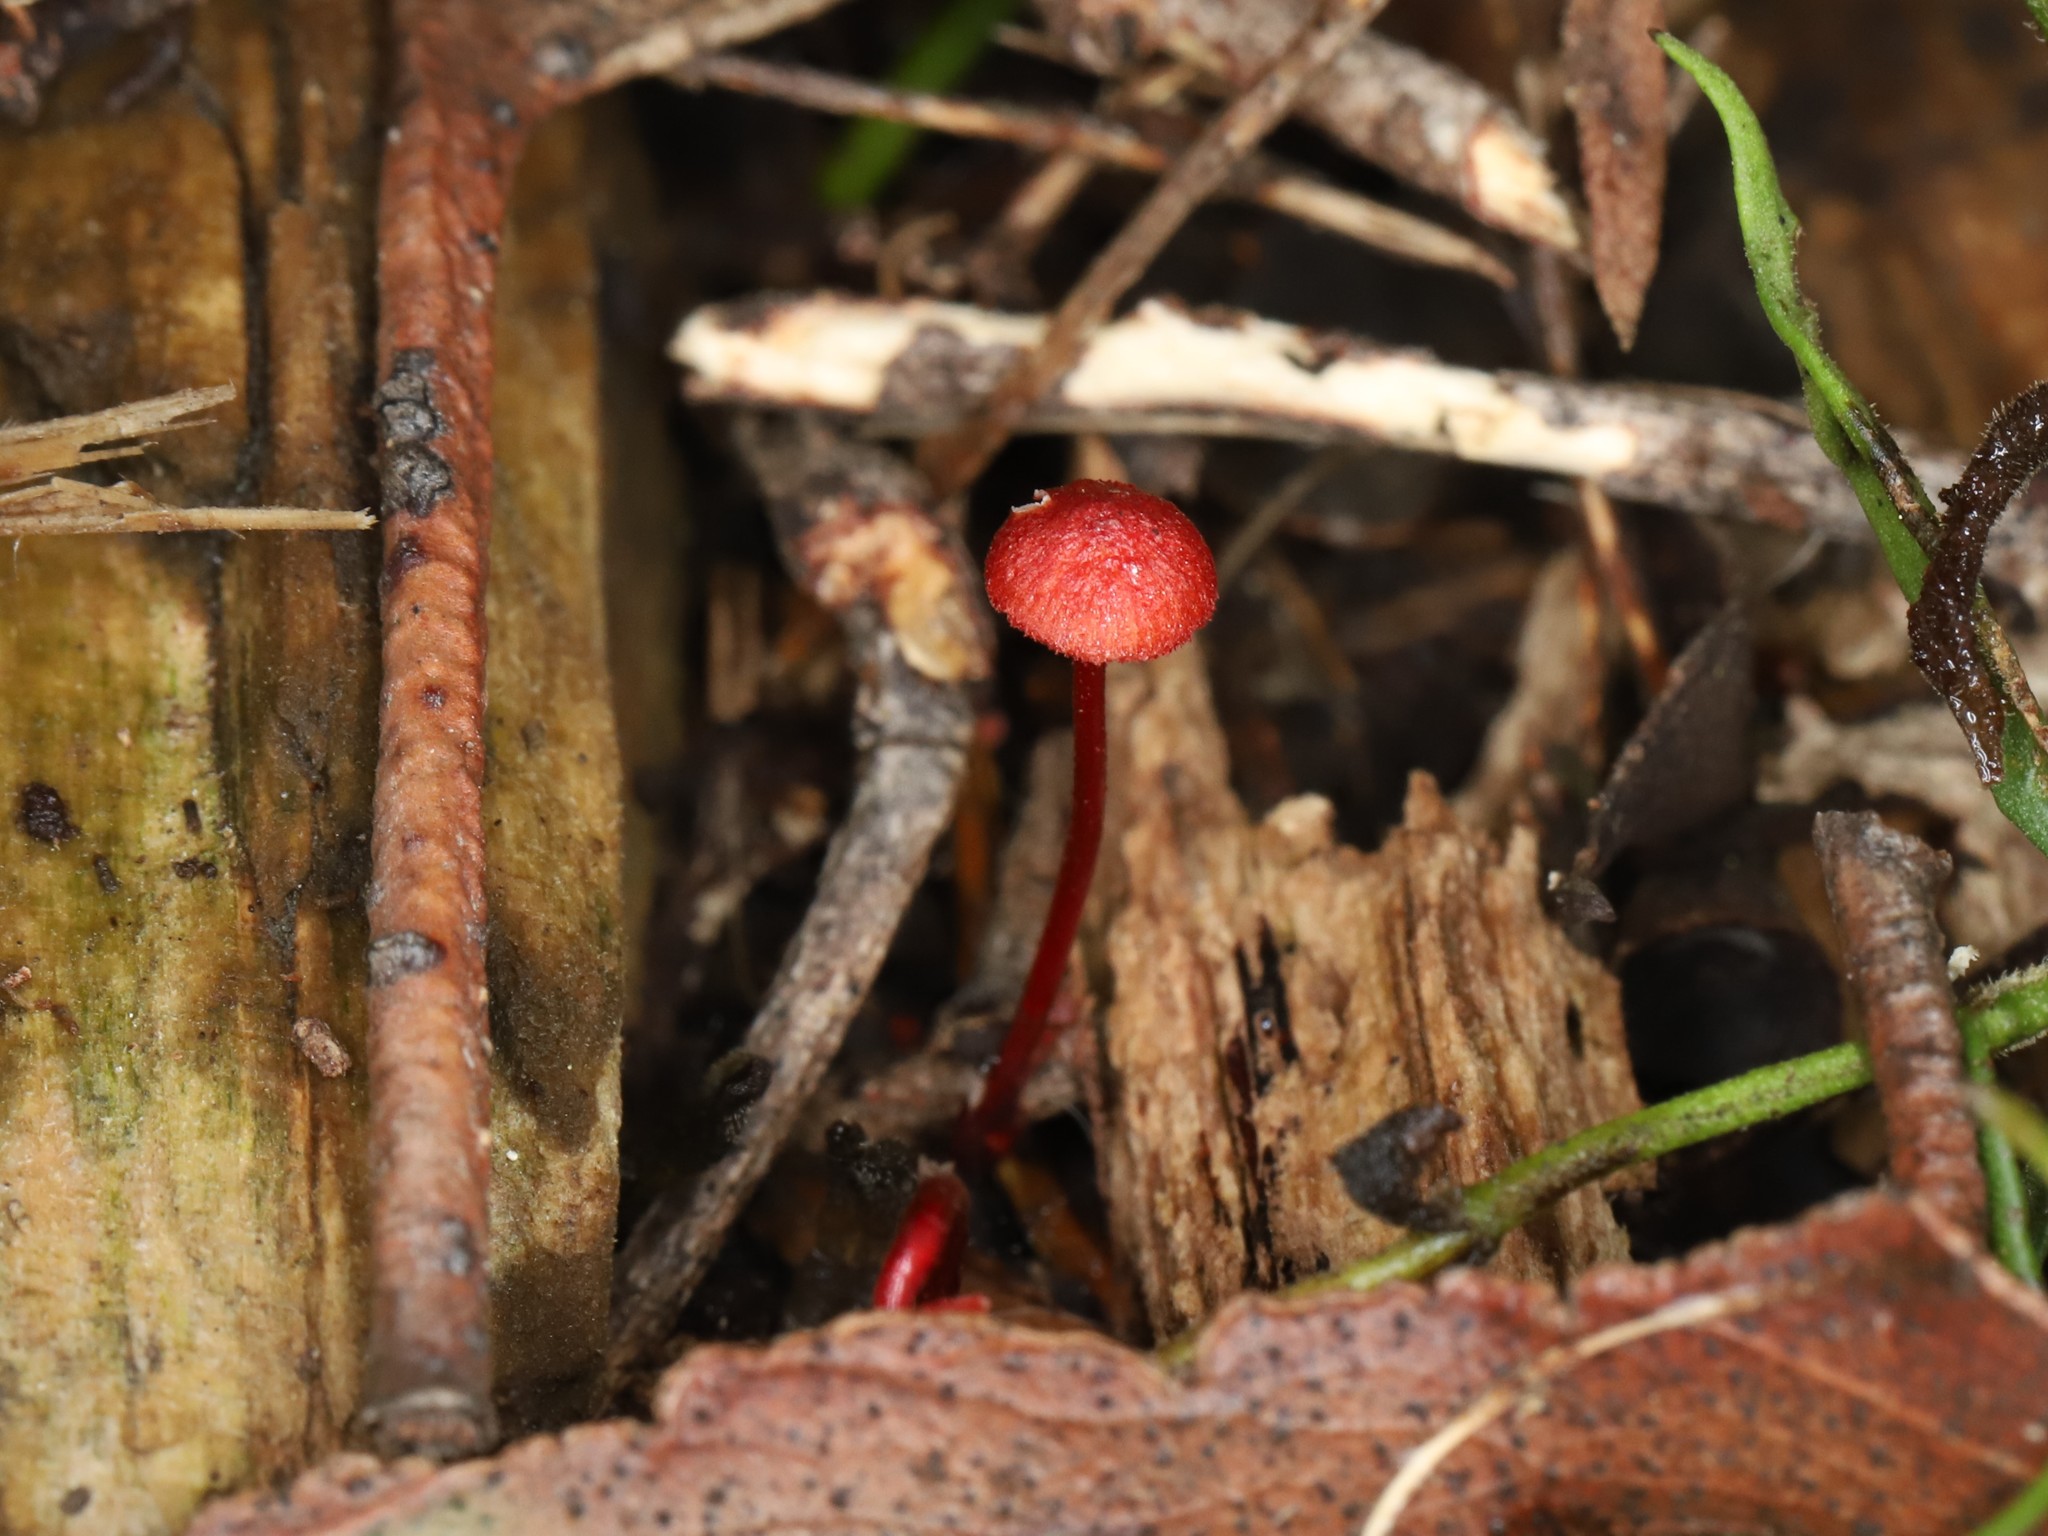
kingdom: Fungi
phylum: Basidiomycota
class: Agaricomycetes
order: Agaricales
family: Mycenaceae
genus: Cruentomycena
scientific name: Cruentomycena viscidocruenta
